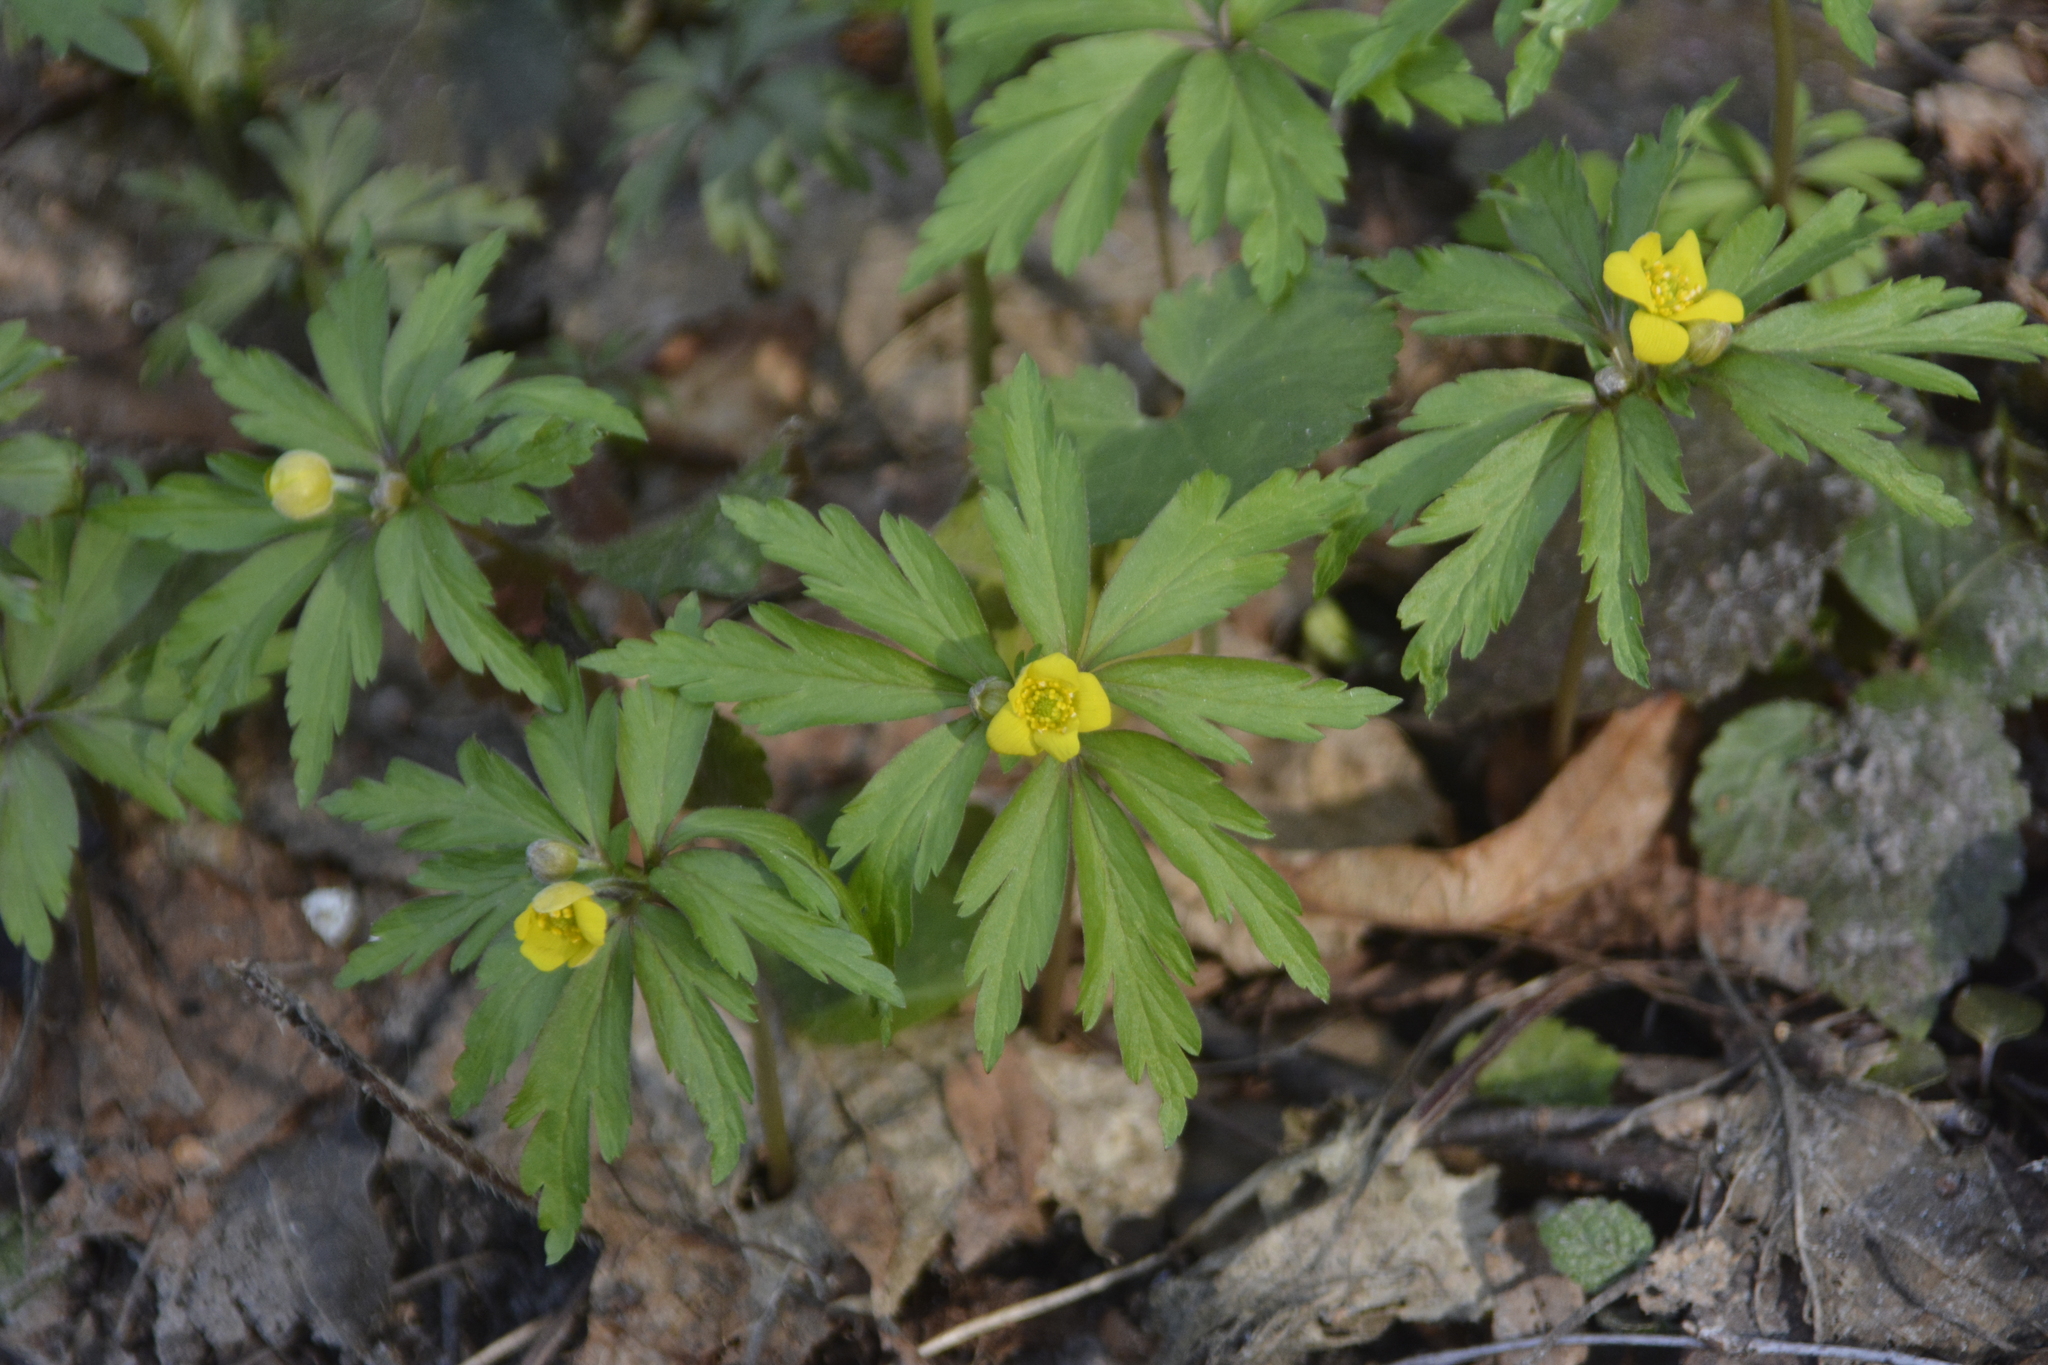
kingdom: Plantae
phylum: Tracheophyta
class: Magnoliopsida
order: Ranunculales
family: Ranunculaceae
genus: Anemone
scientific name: Anemone ranunculoides
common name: Yellow anemone
